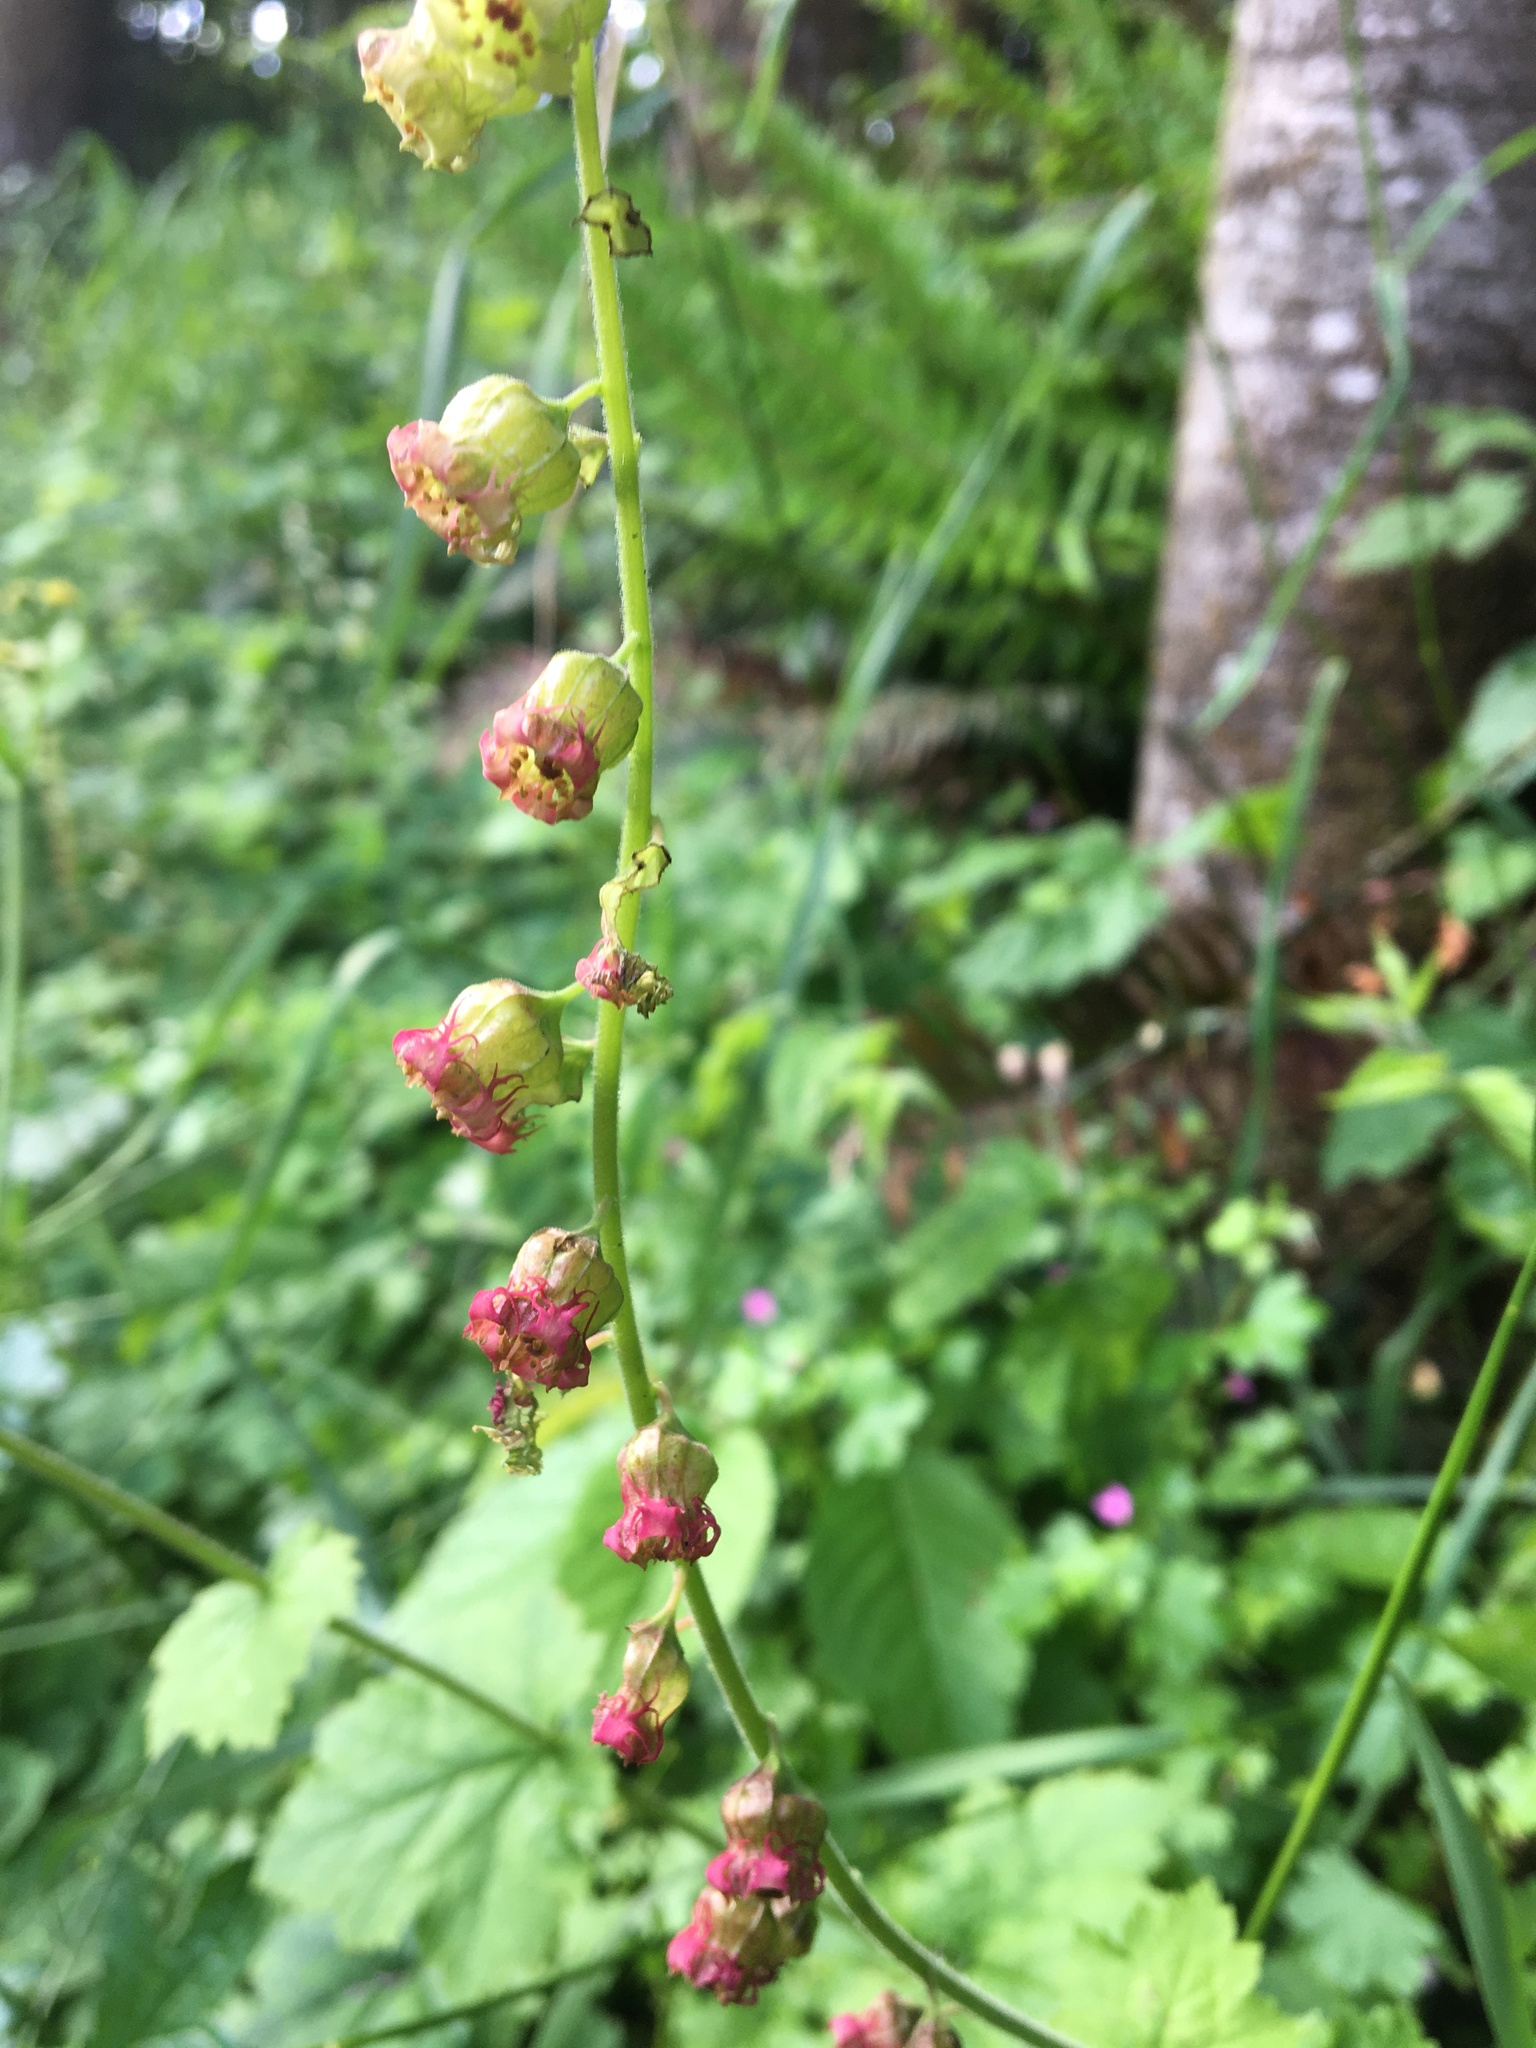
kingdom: Plantae
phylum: Tracheophyta
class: Magnoliopsida
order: Saxifragales
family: Saxifragaceae
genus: Tellima
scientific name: Tellima grandiflora
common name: Fringecups
